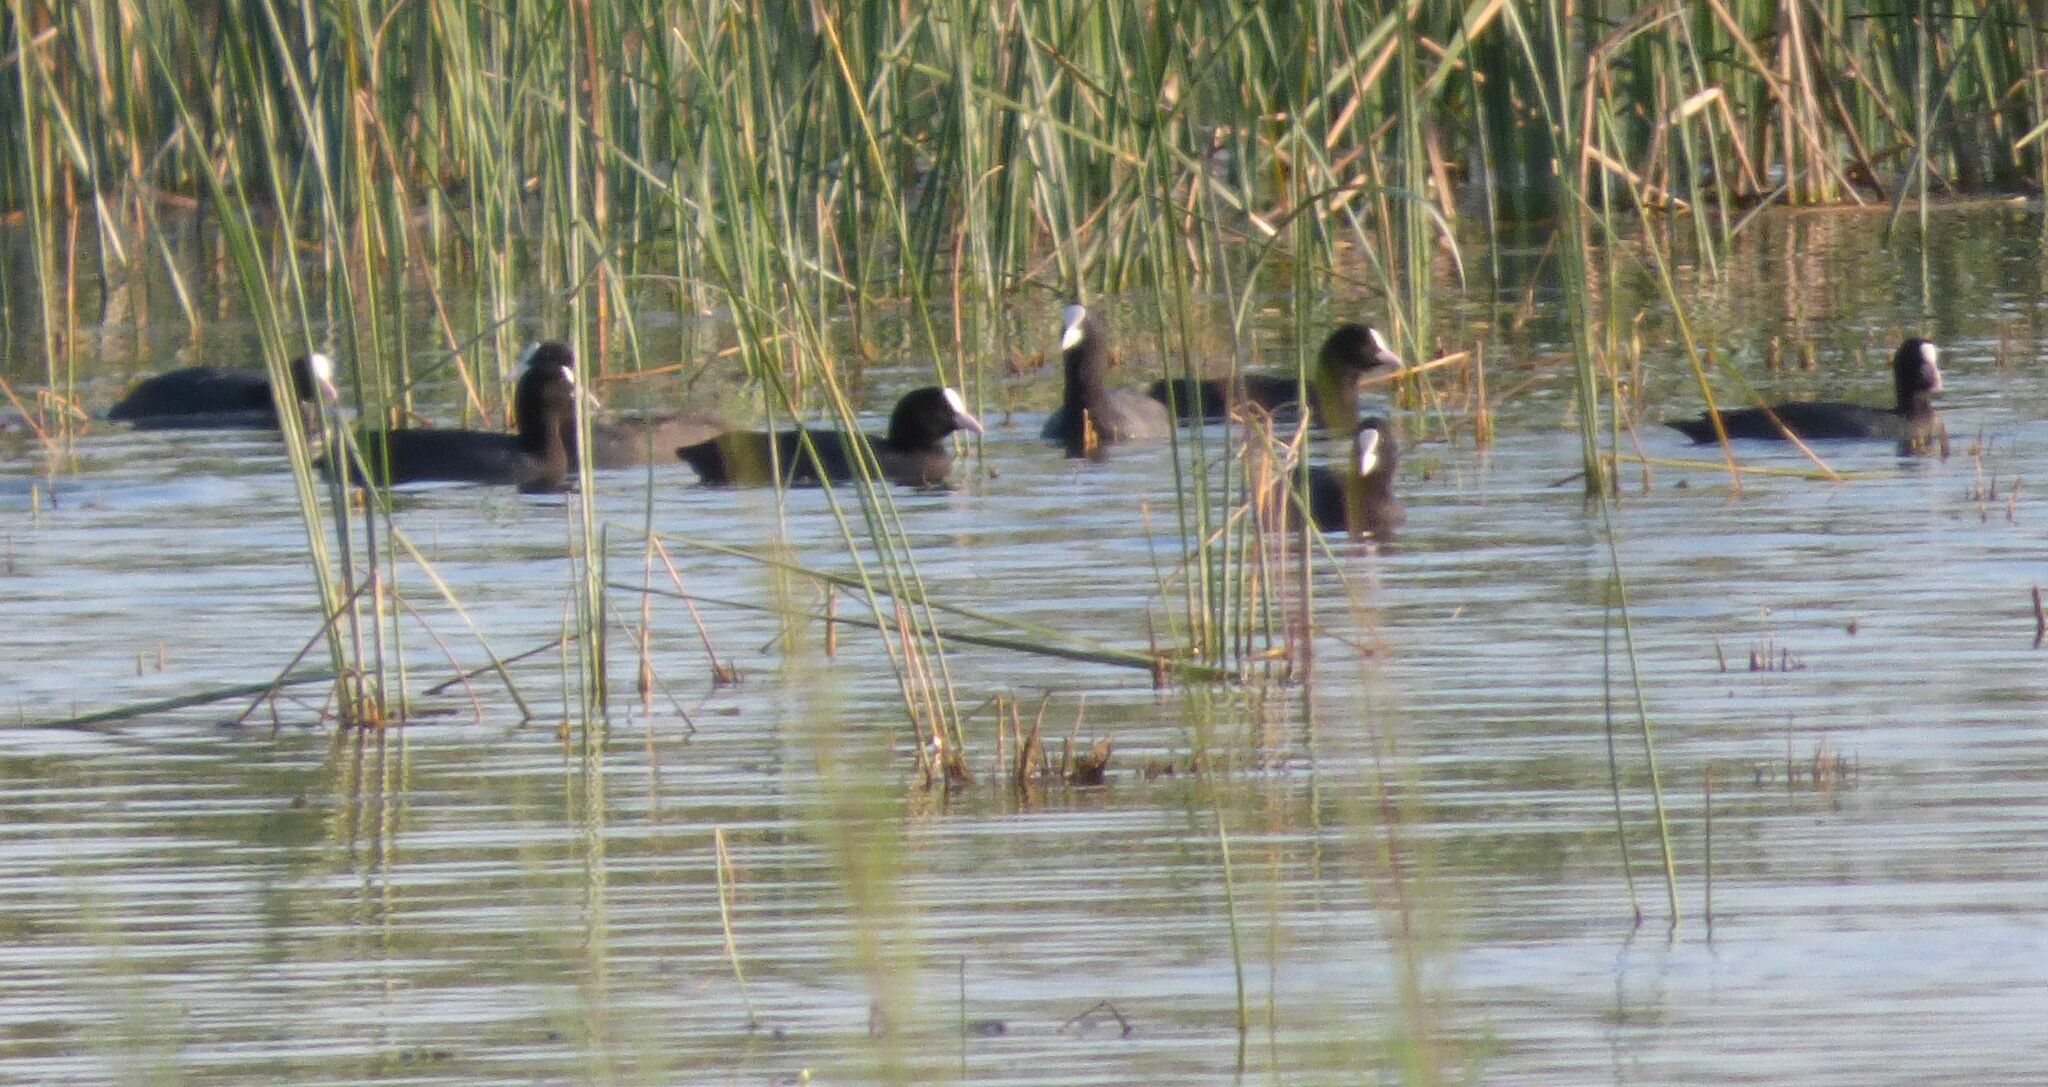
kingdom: Animalia
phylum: Chordata
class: Aves
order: Gruiformes
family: Rallidae
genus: Fulica
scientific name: Fulica atra
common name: Eurasian coot
